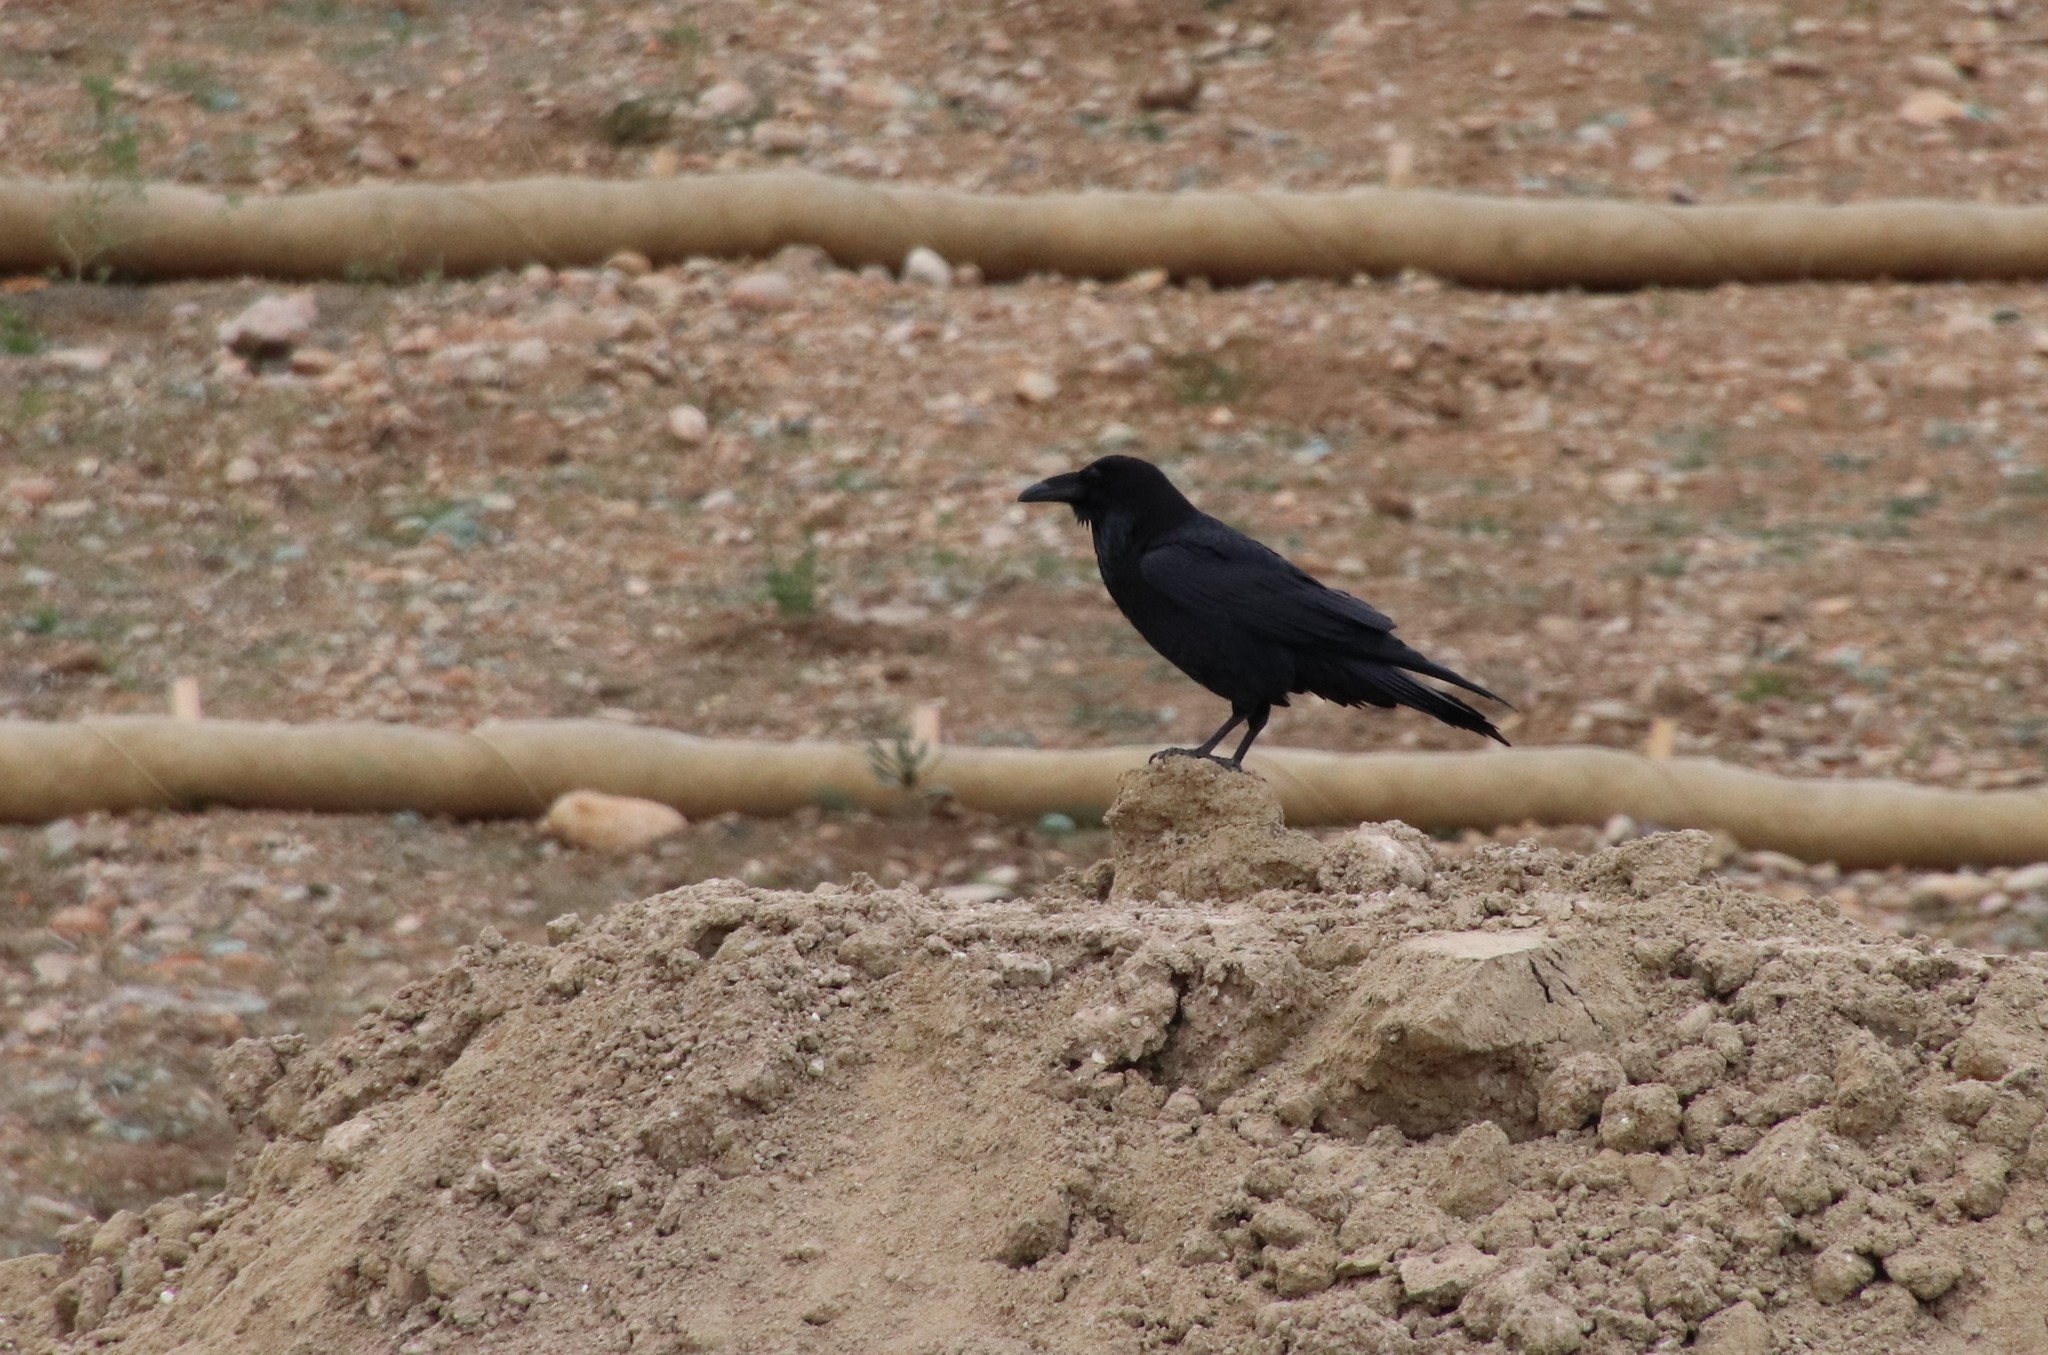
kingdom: Animalia
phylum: Chordata
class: Aves
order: Passeriformes
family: Corvidae
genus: Corvus
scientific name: Corvus corax
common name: Common raven
